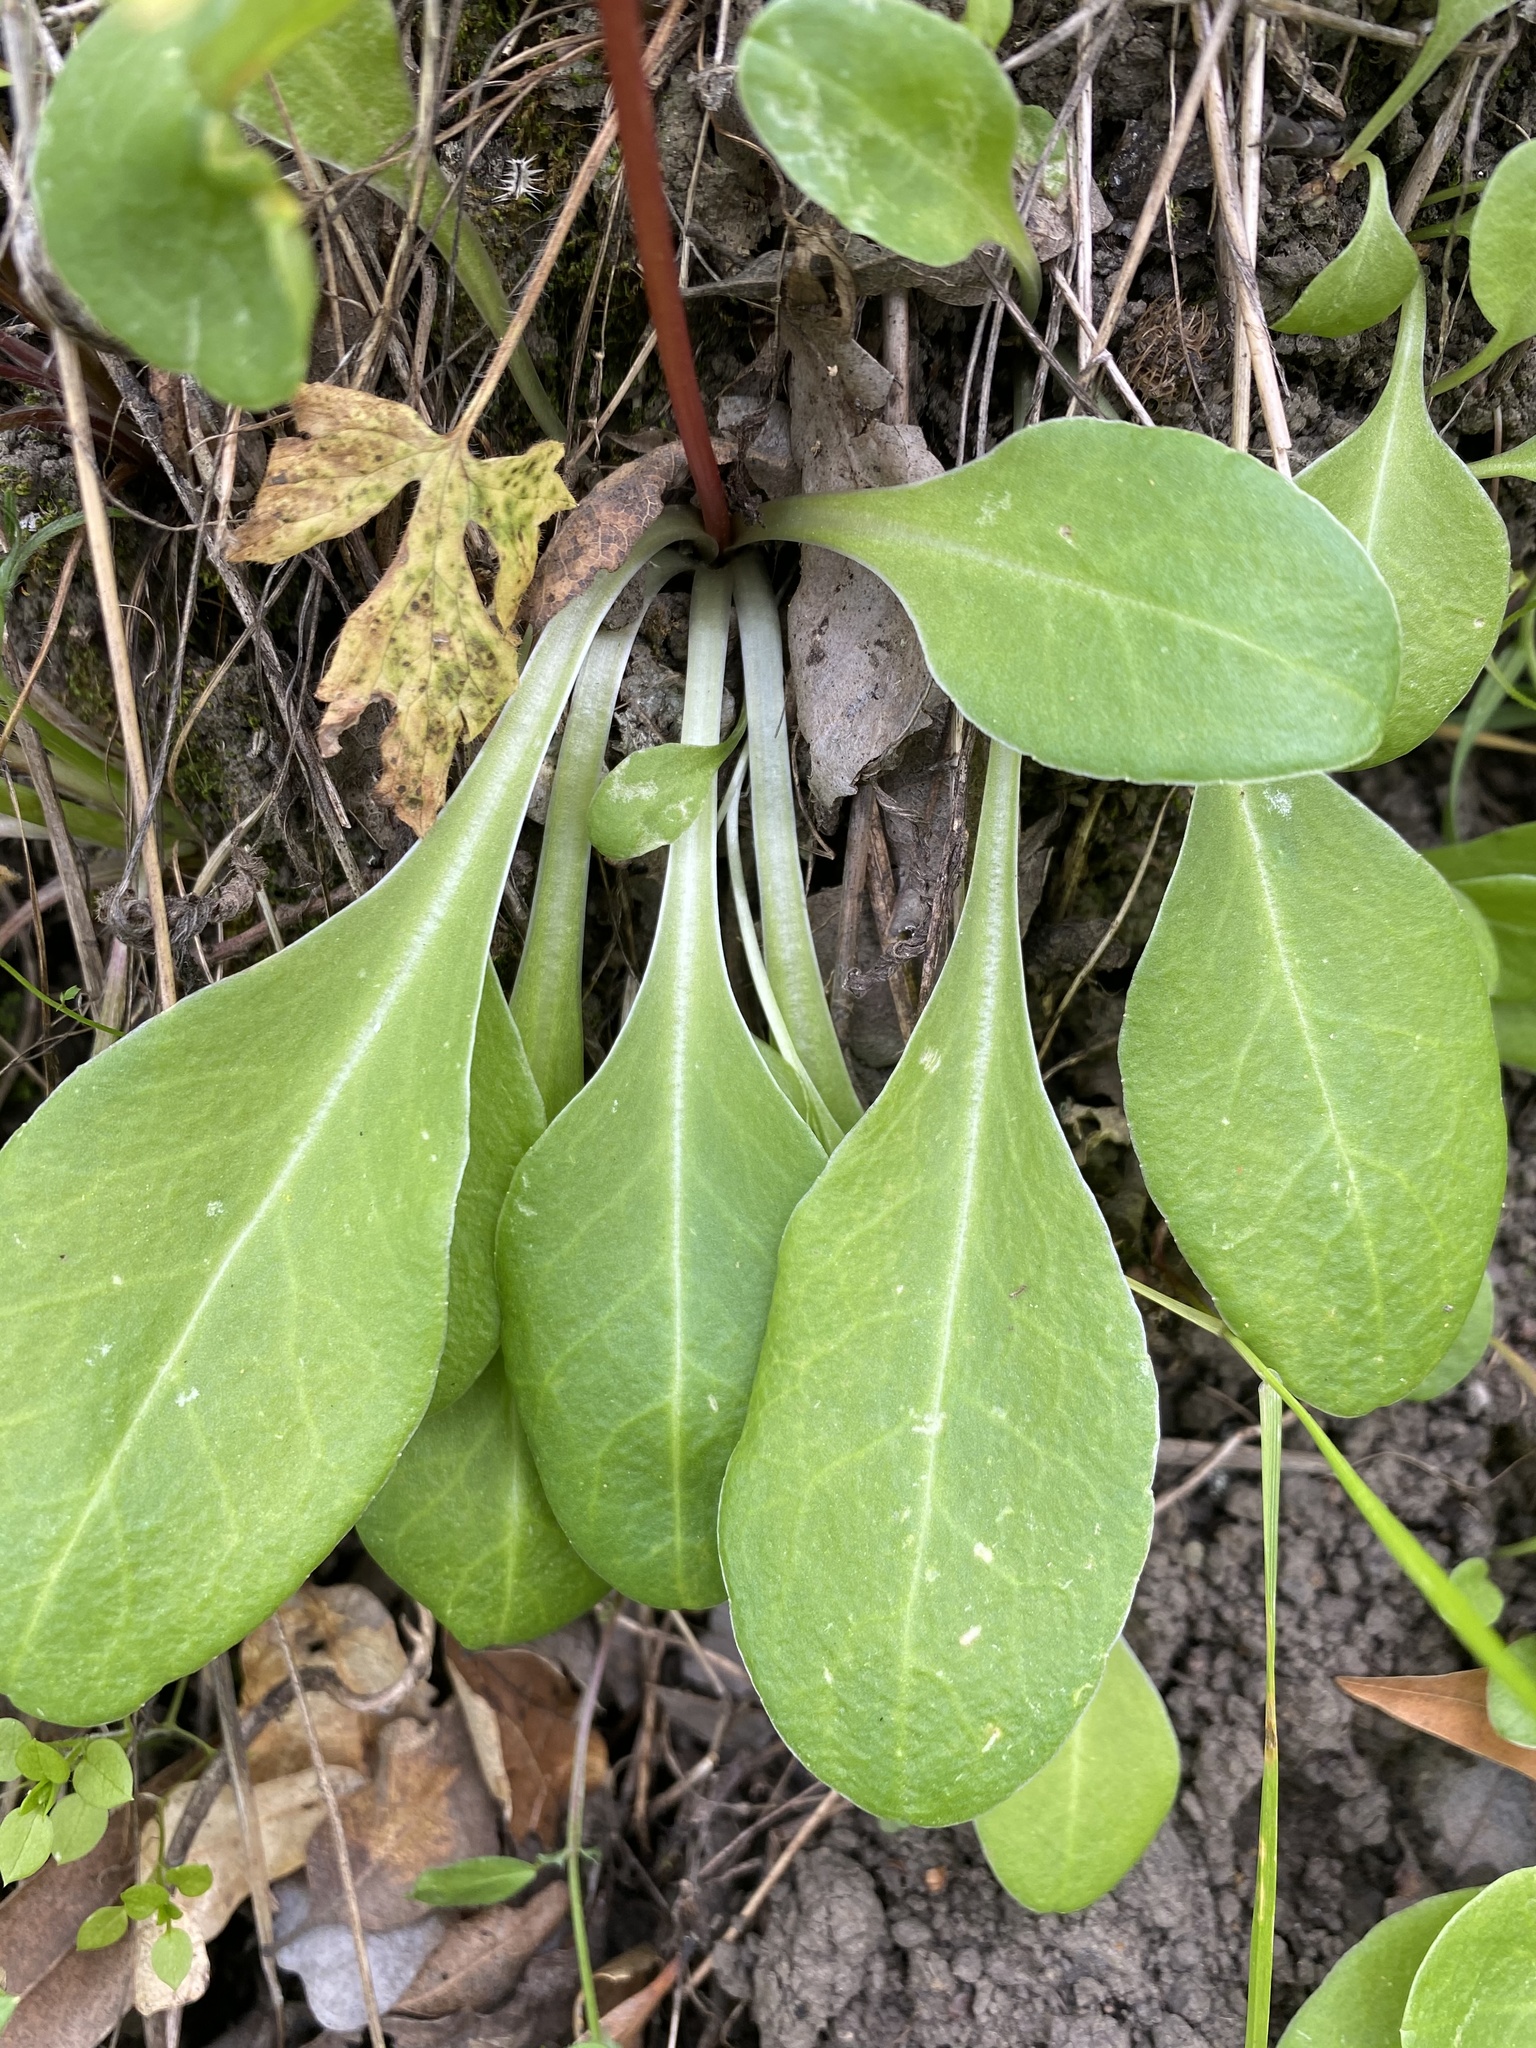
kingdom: Plantae
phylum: Tracheophyta
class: Magnoliopsida
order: Ericales
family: Primulaceae
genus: Dodecatheon
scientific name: Dodecatheon hendersonii
